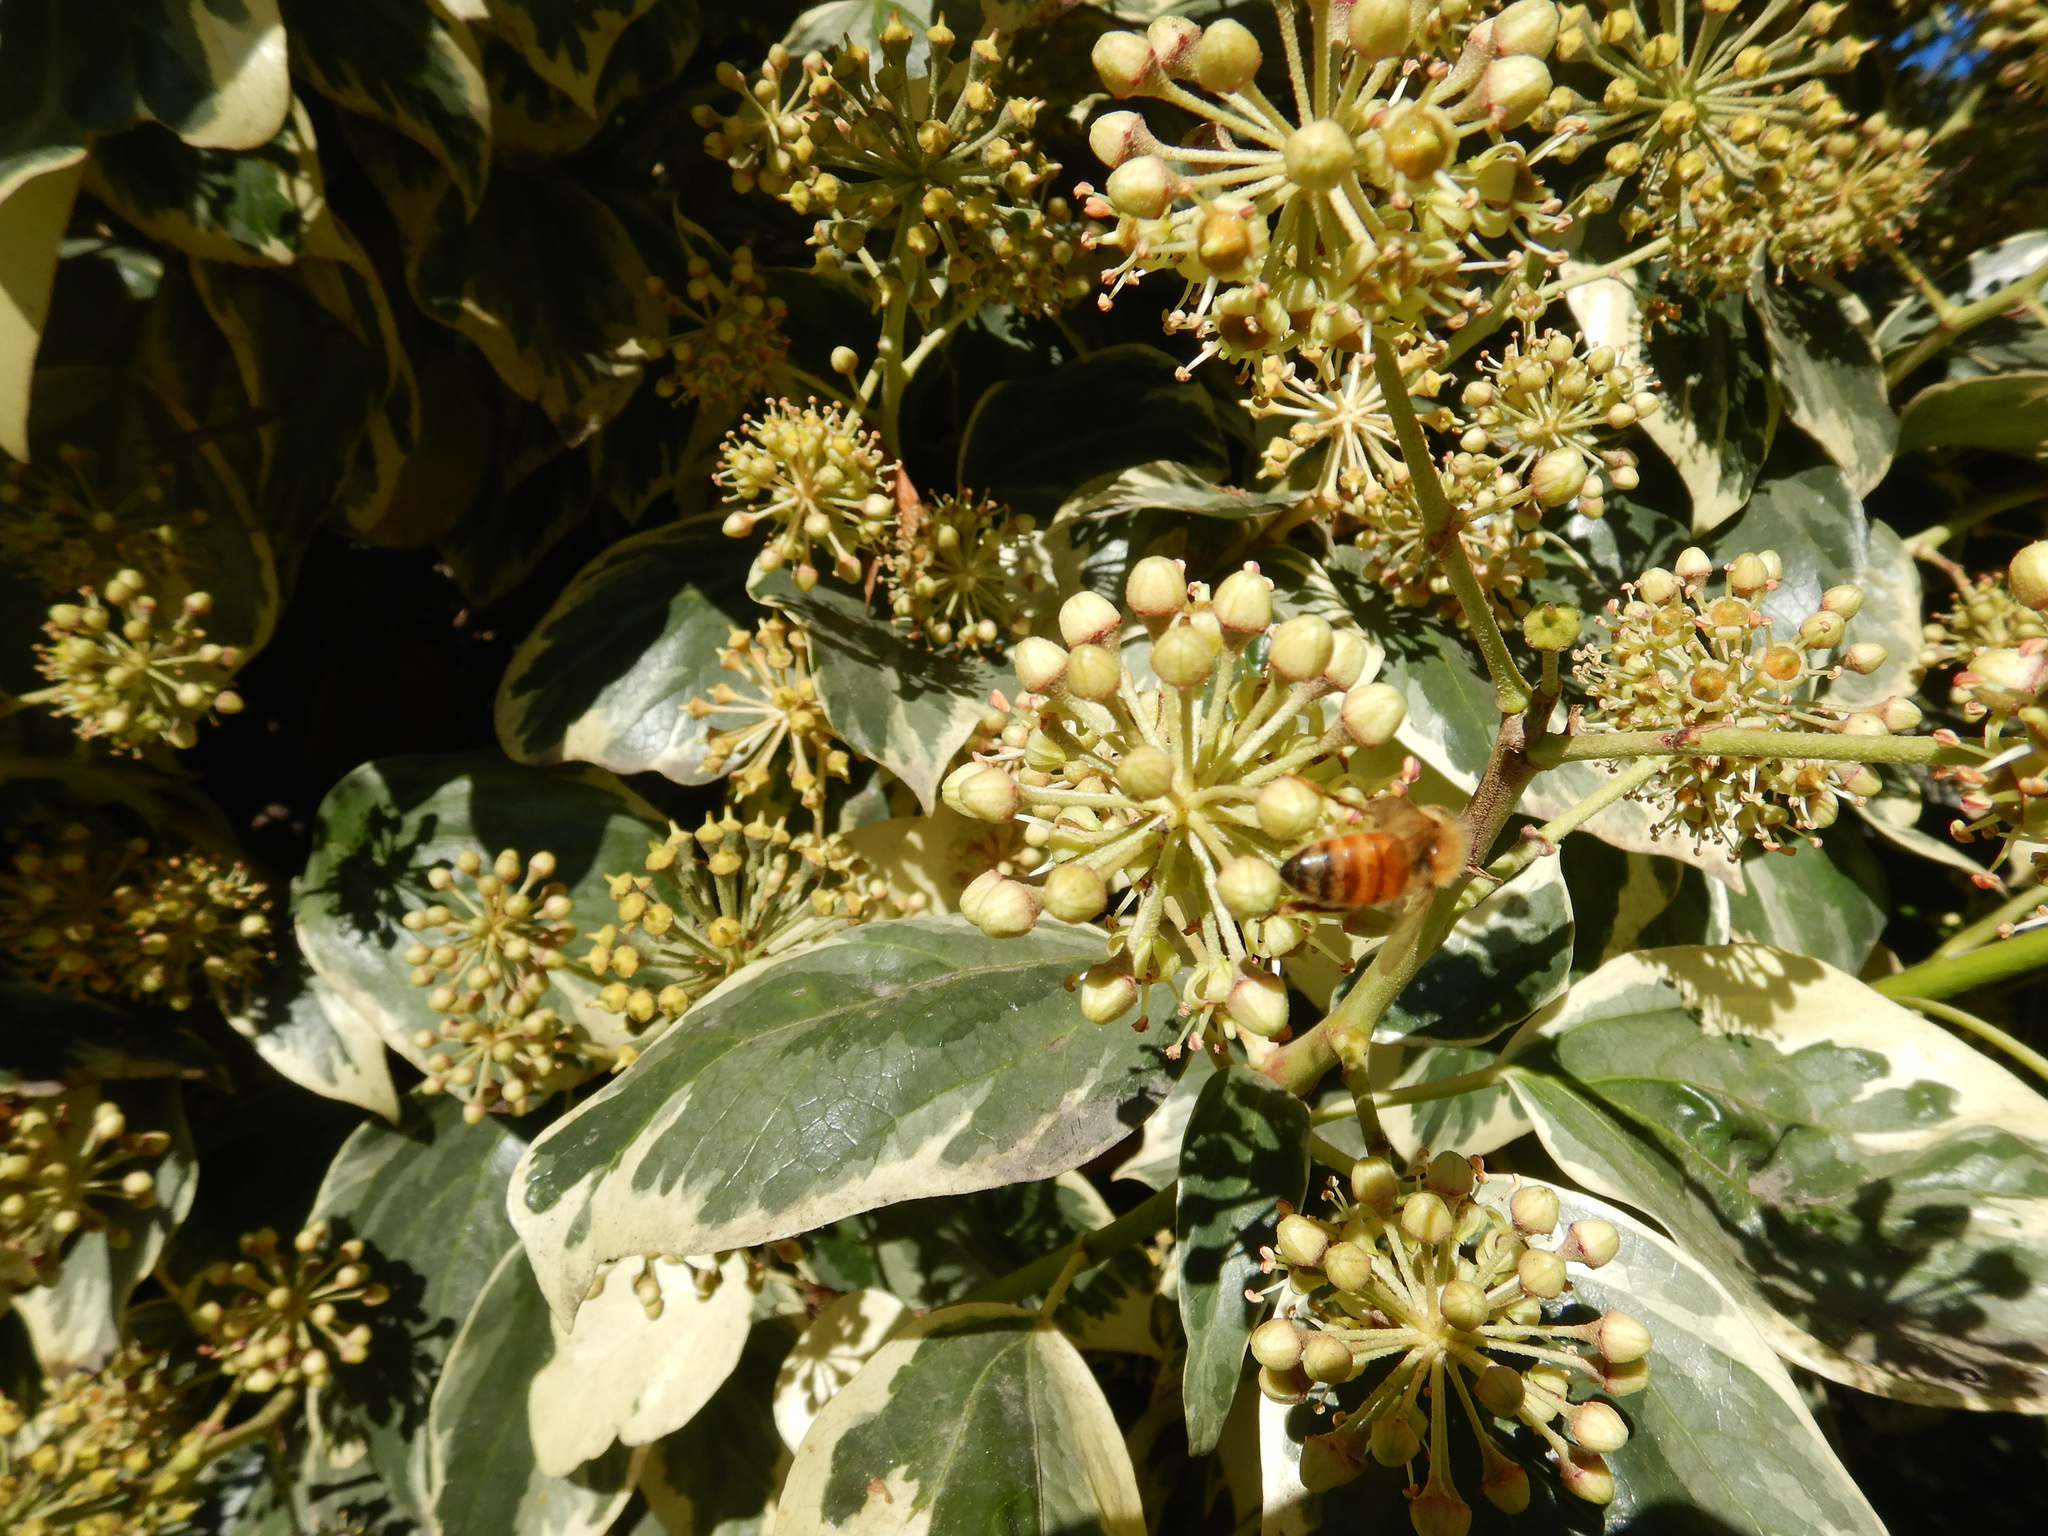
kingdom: Animalia
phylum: Arthropoda
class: Insecta
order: Hymenoptera
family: Apidae
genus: Apis
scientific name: Apis mellifera
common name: Honey bee
